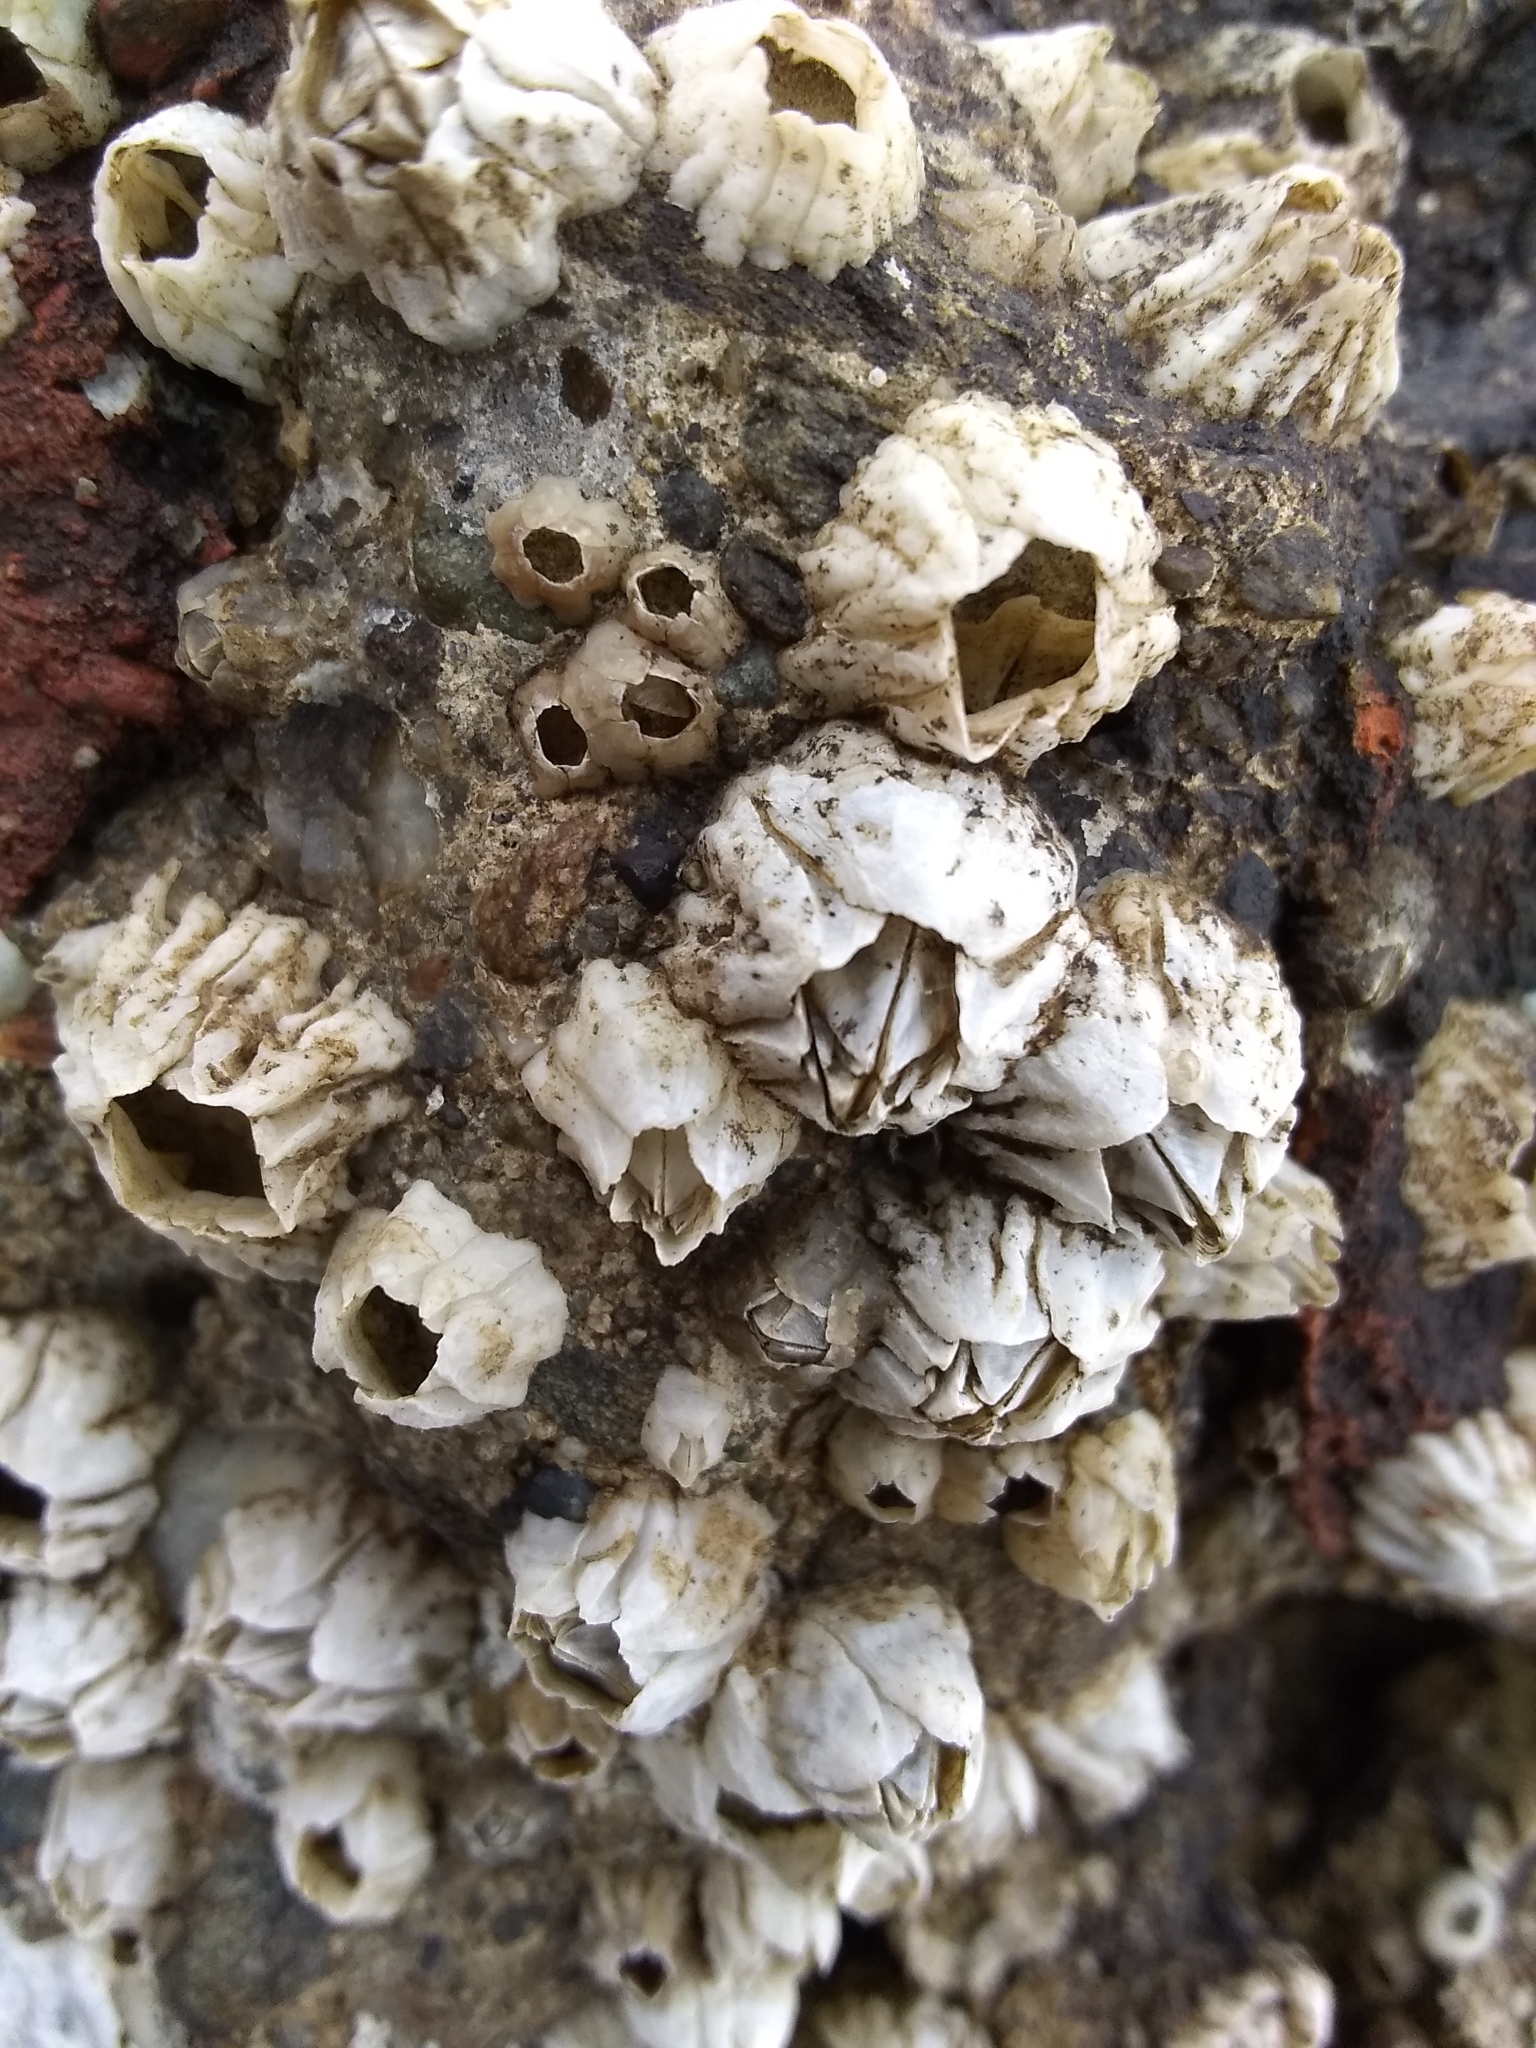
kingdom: Animalia
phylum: Arthropoda
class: Maxillopoda
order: Sessilia
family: Balanidae
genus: Balanus
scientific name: Balanus glandula
